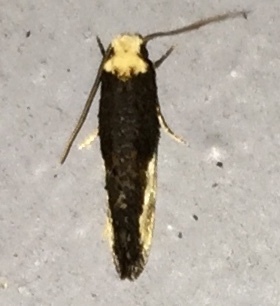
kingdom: Animalia
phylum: Arthropoda
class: Insecta
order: Lepidoptera
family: Tineidae
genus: Monopis
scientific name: Monopis longella
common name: Pavlovski's monopis moth
